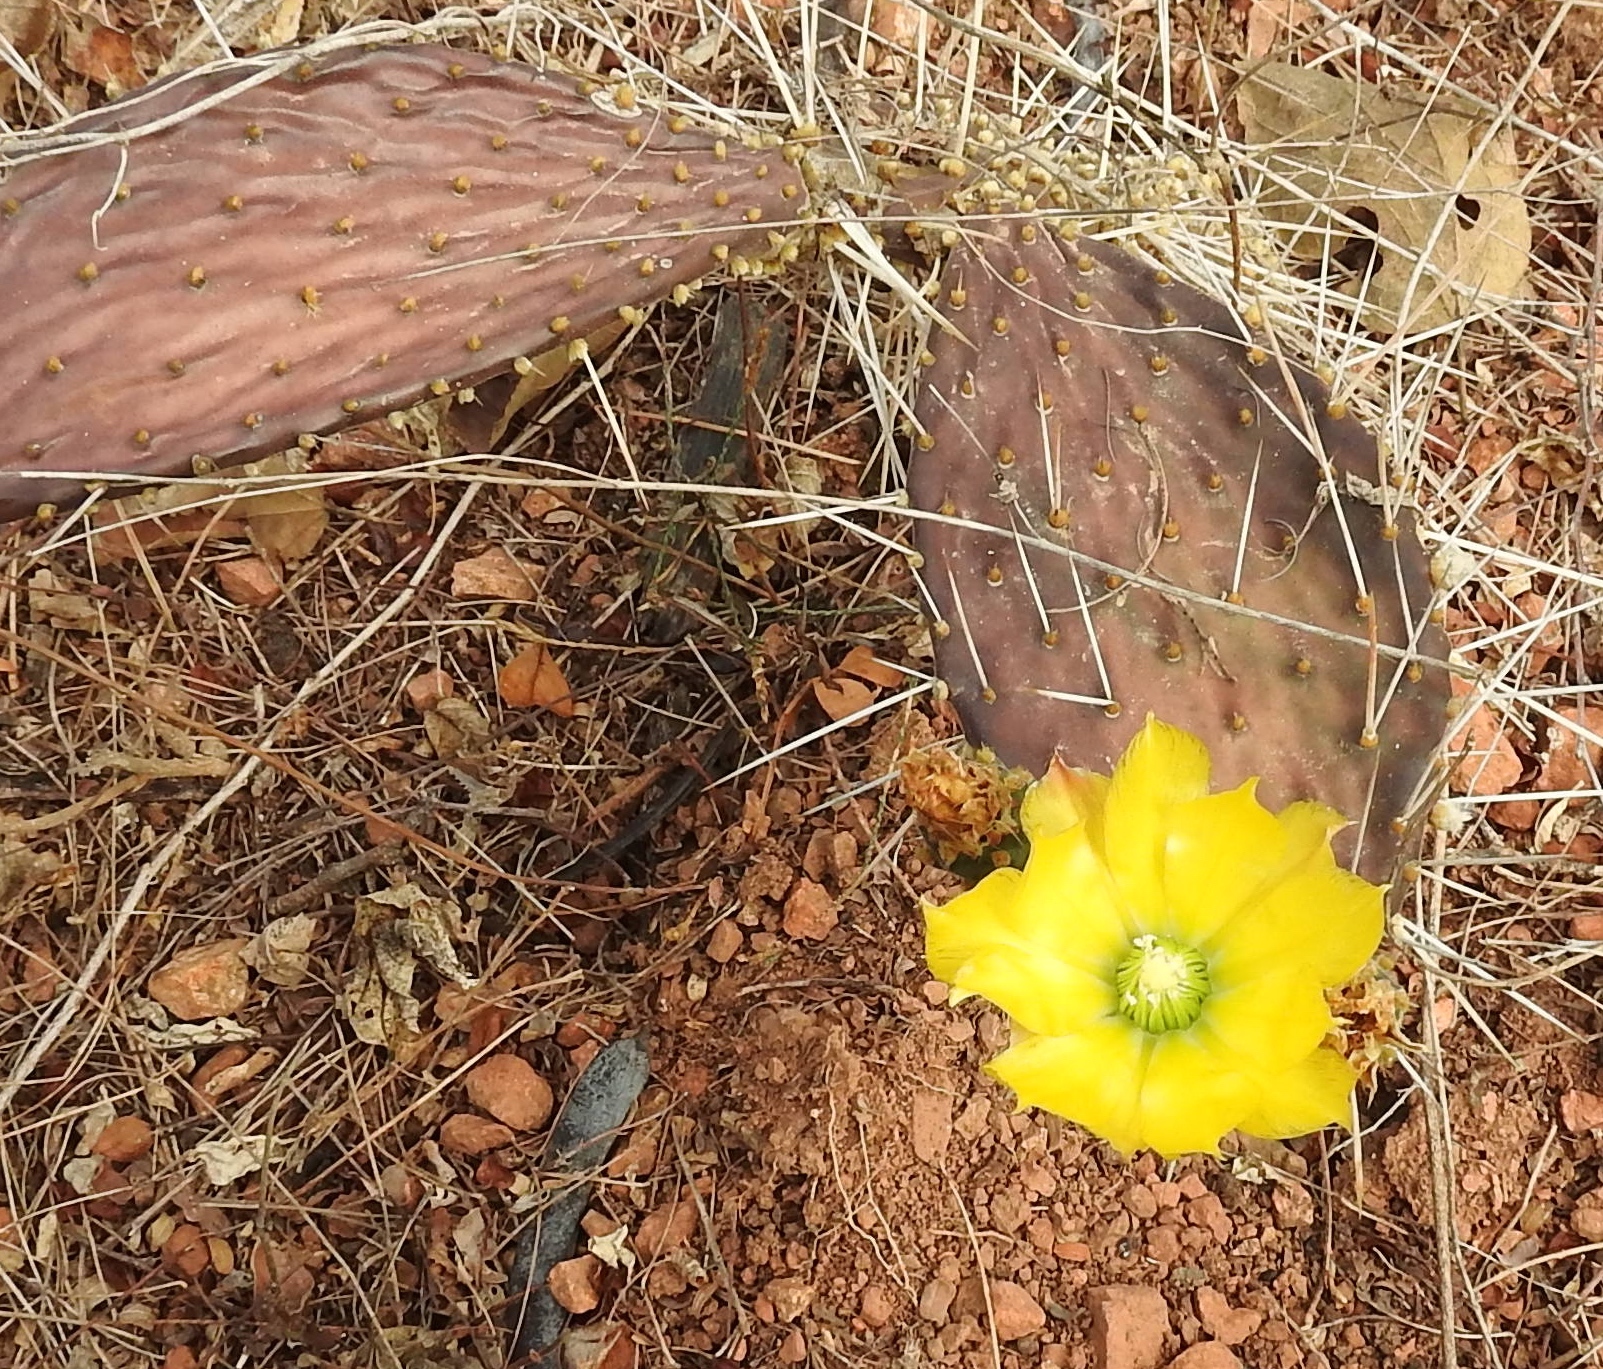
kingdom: Plantae
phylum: Tracheophyta
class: Magnoliopsida
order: Caryophyllales
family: Cactaceae
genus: Opuntia
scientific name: Opuntia decumbens
